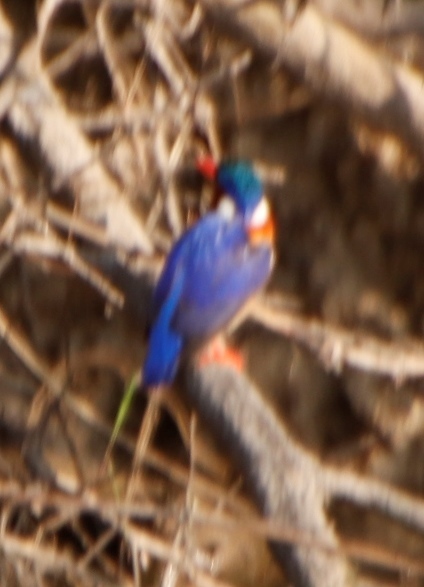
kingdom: Animalia
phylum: Chordata
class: Aves
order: Coraciiformes
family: Alcedinidae
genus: Corythornis
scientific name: Corythornis cristatus
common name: Malachite kingfisher
